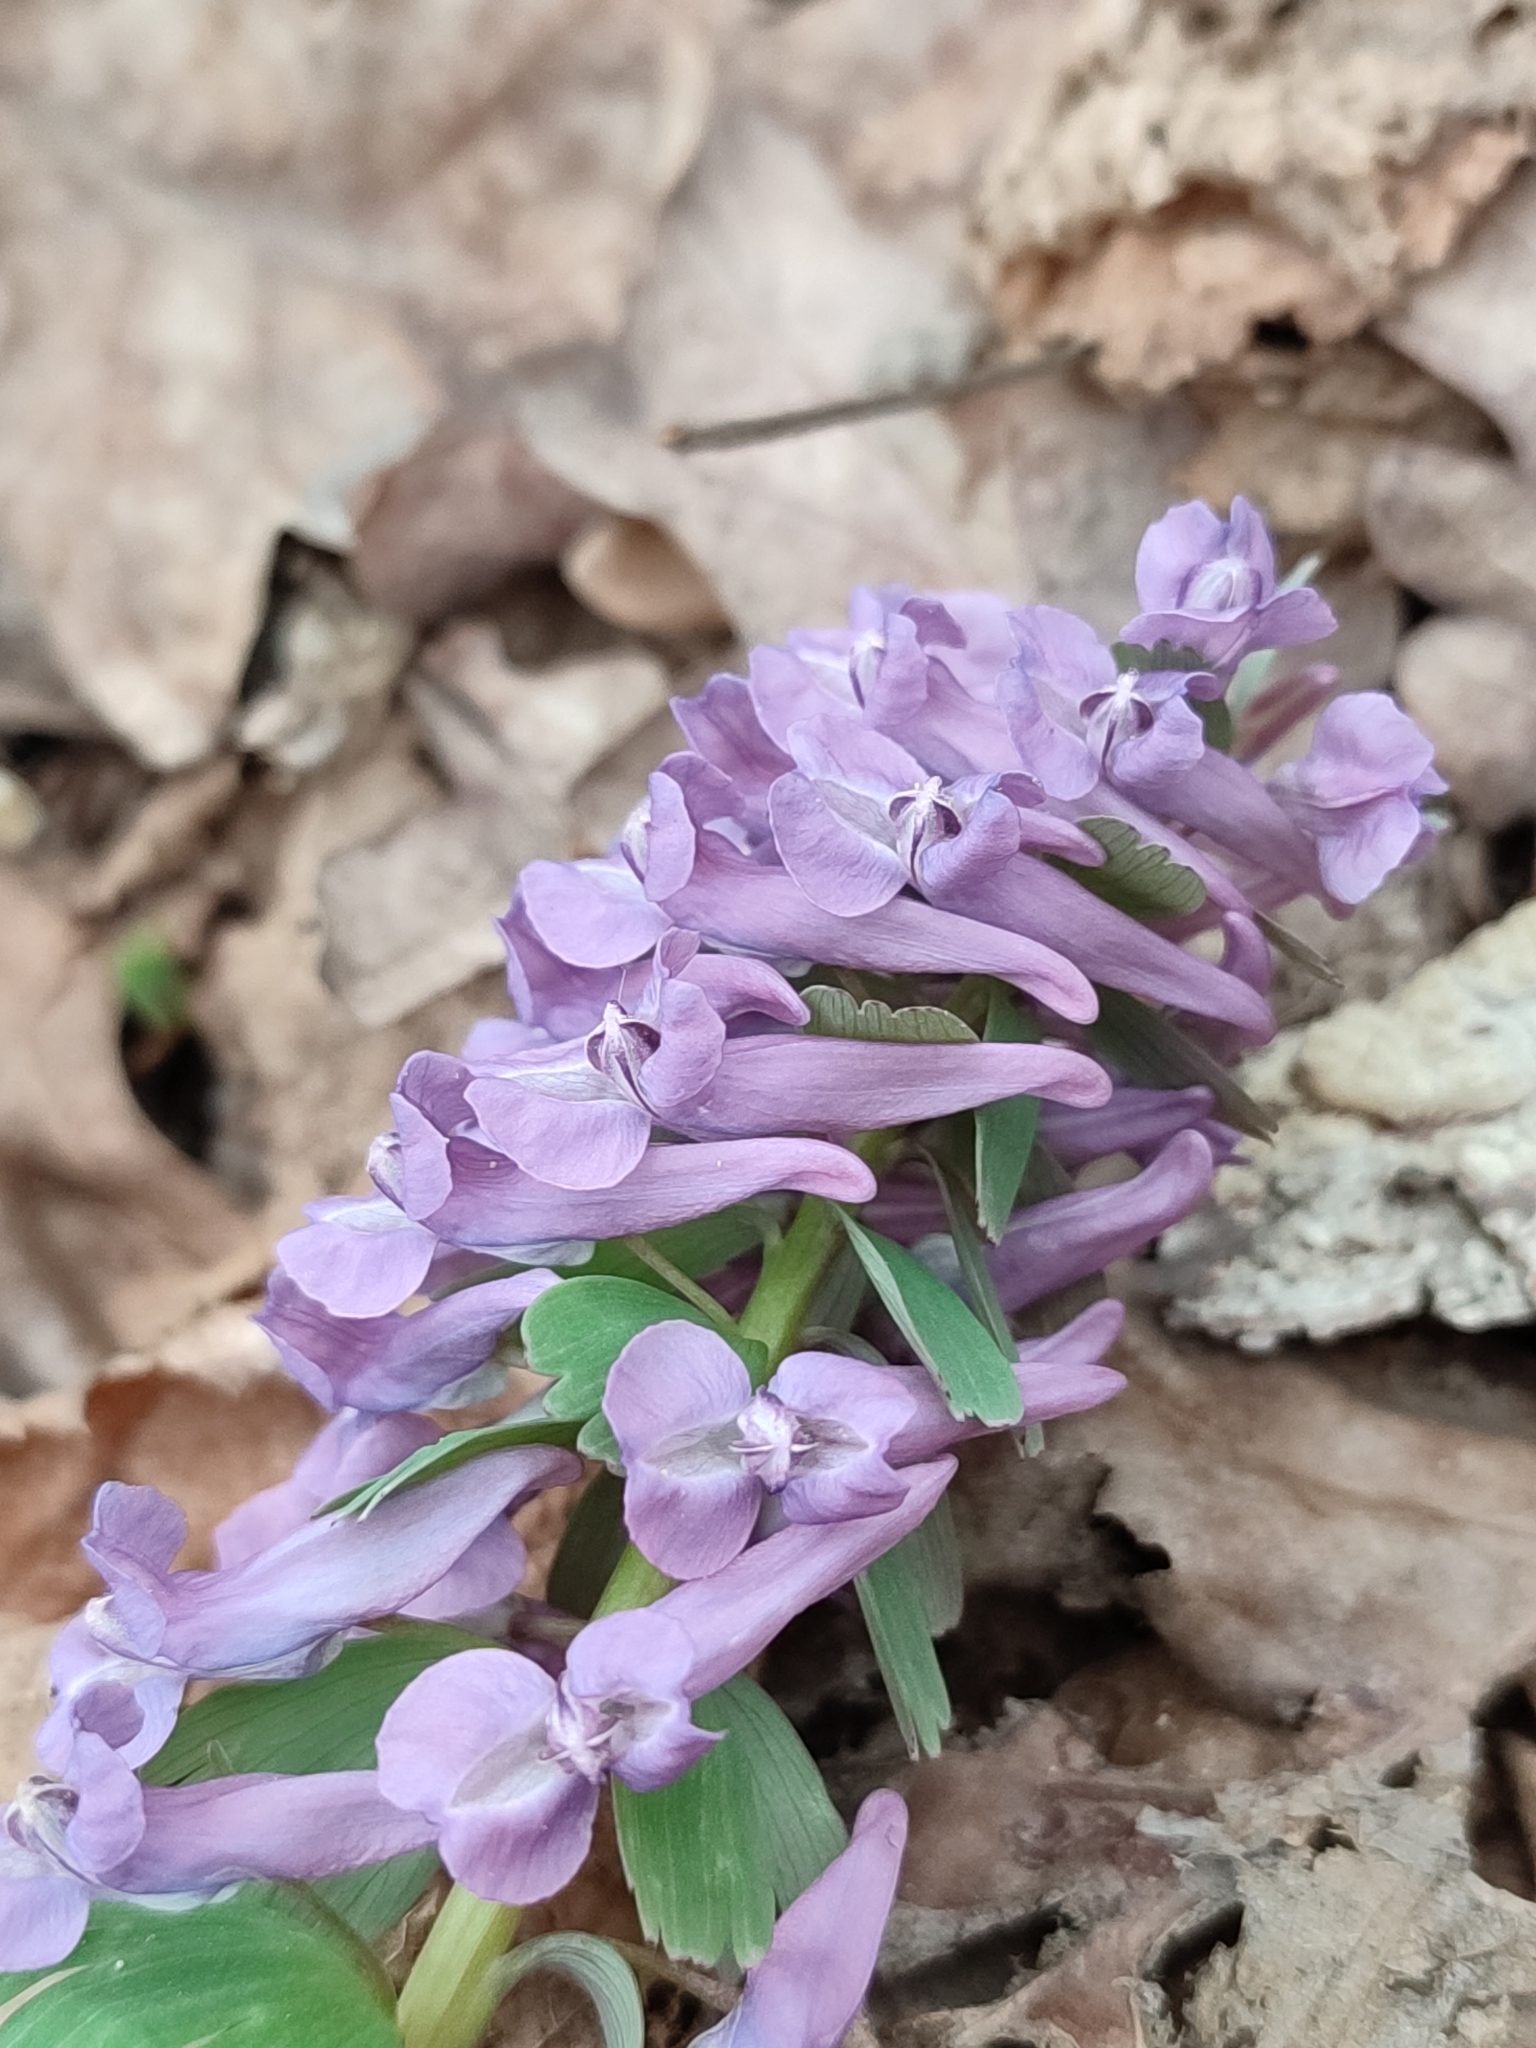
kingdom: Plantae
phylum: Tracheophyta
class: Magnoliopsida
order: Ranunculales
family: Papaveraceae
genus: Corydalis
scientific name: Corydalis solida
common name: Bird-in-a-bush
